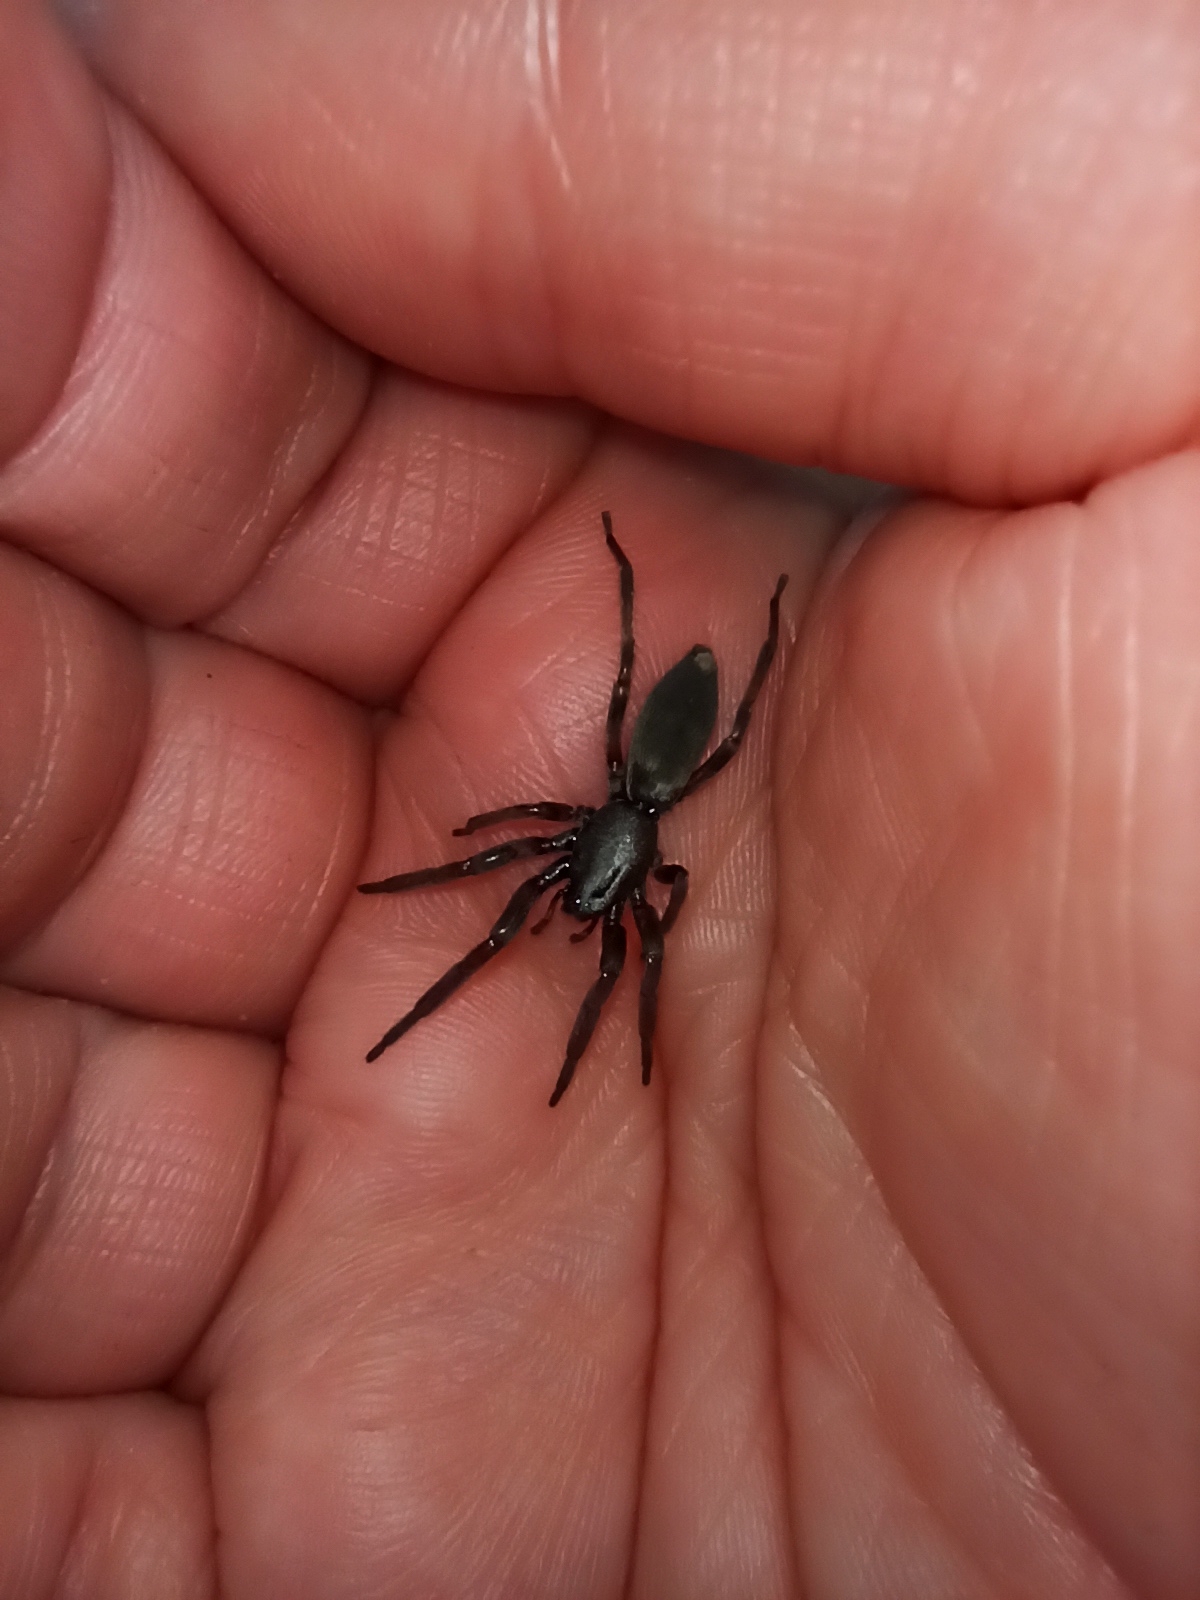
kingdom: Animalia
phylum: Arthropoda
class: Arachnida
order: Araneae
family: Lamponidae
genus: Lampona
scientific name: Lampona cylindrata
